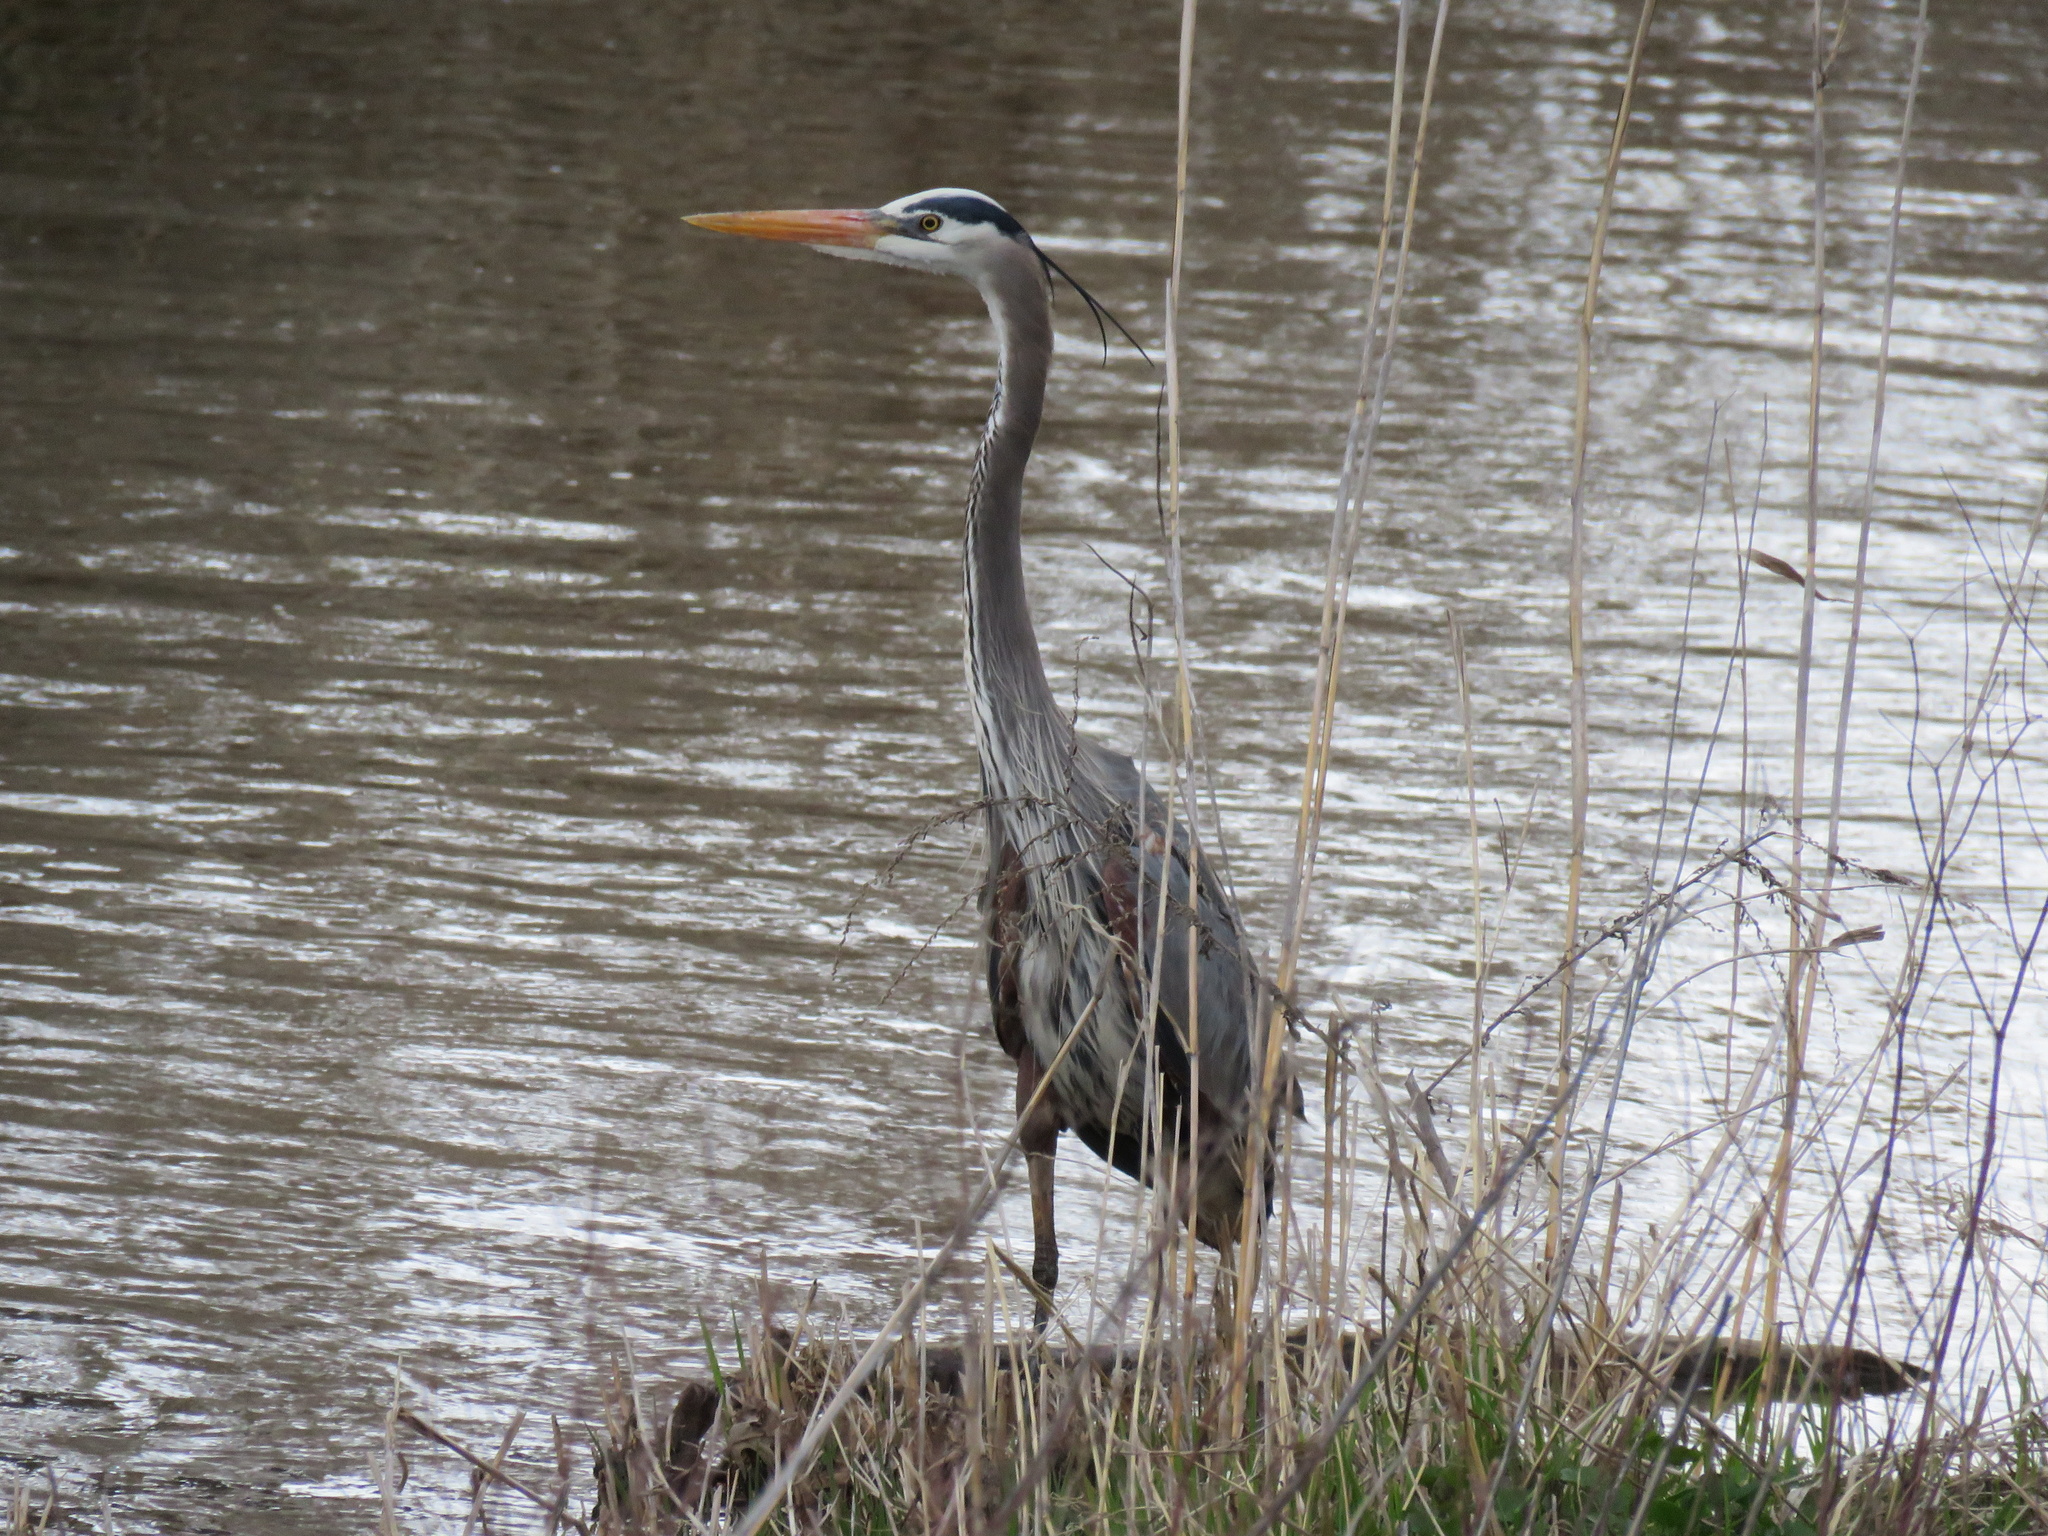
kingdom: Animalia
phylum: Chordata
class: Aves
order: Pelecaniformes
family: Ardeidae
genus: Ardea
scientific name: Ardea herodias
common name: Great blue heron
